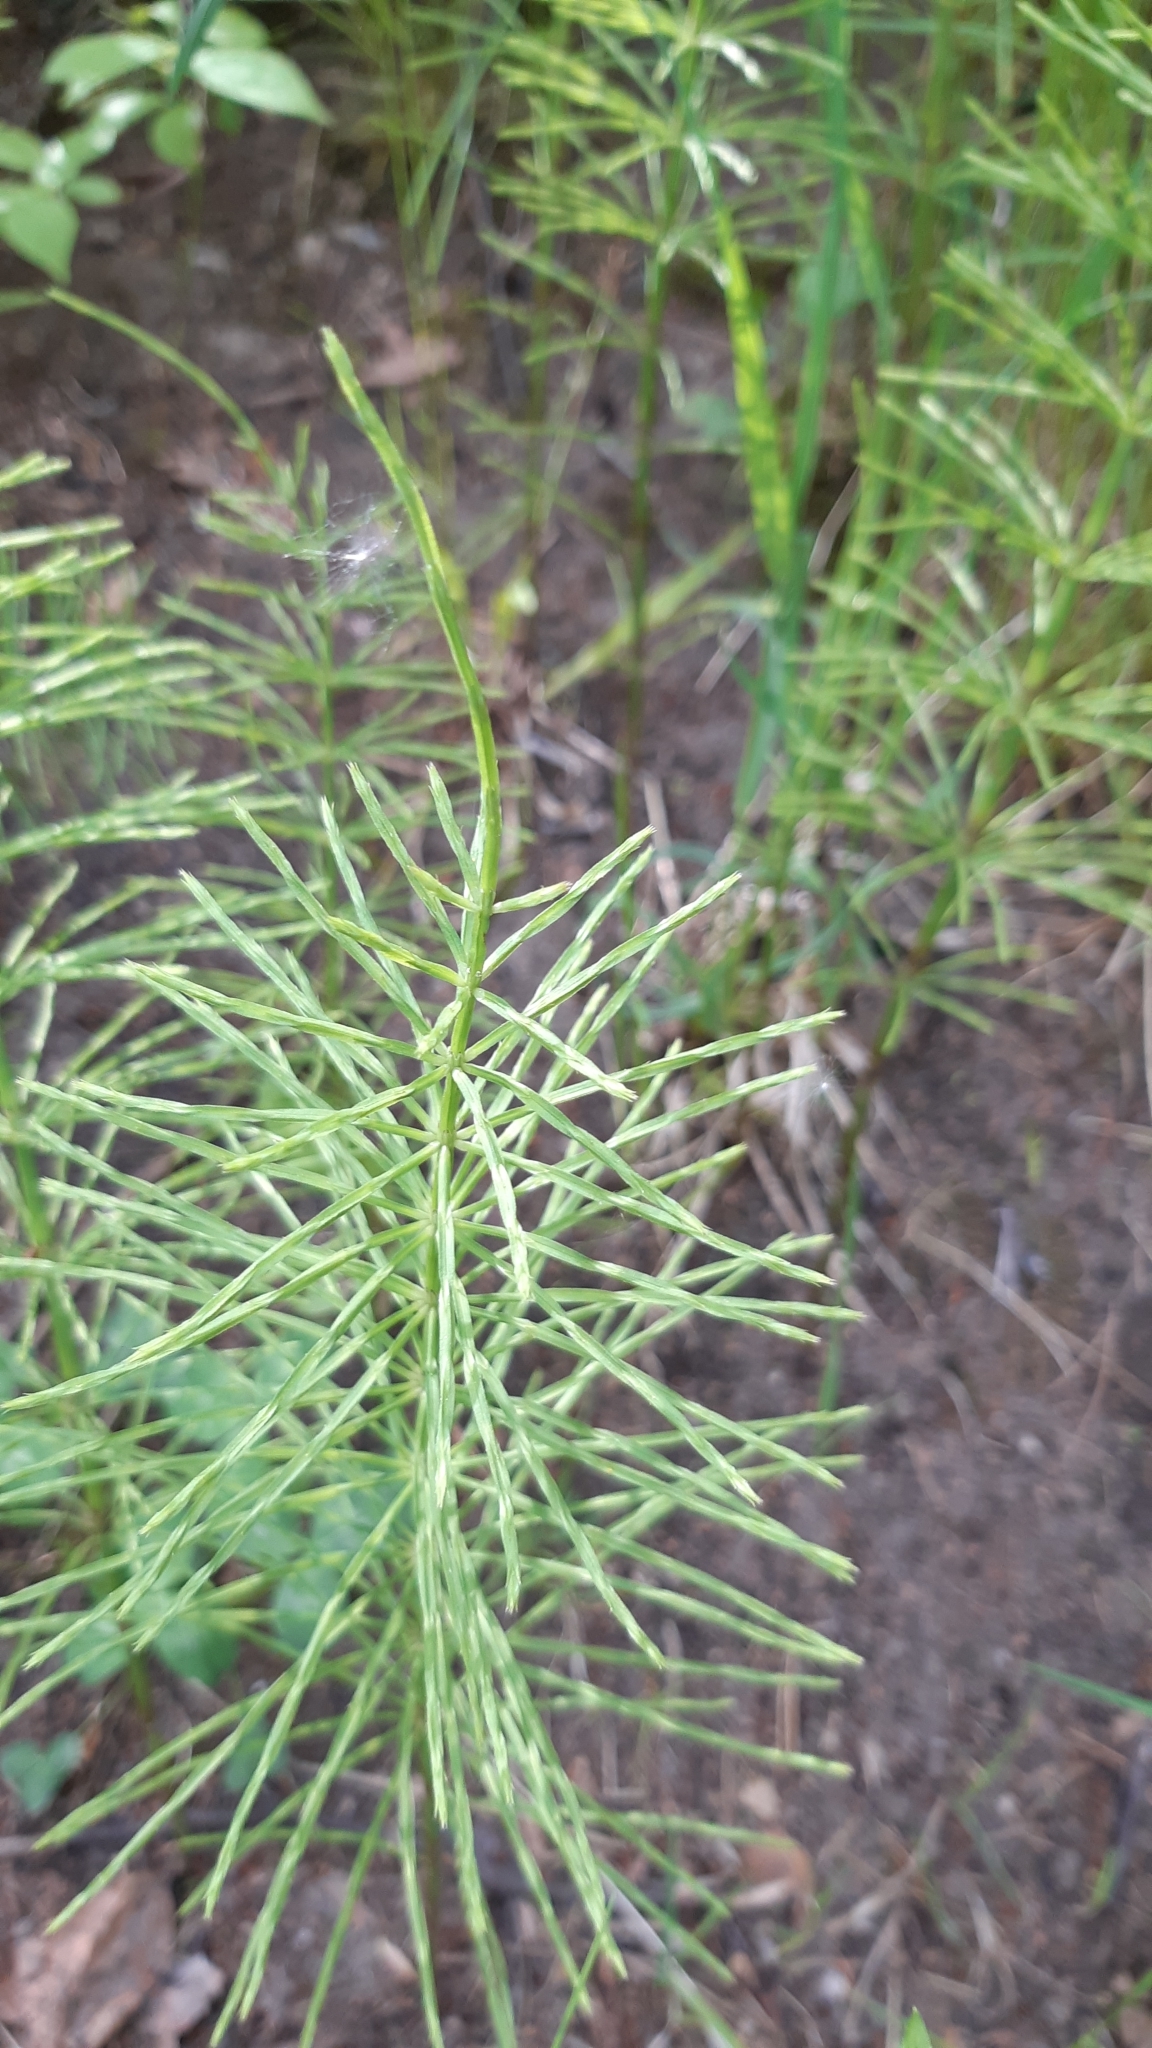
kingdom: Plantae
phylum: Tracheophyta
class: Polypodiopsida
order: Equisetales
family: Equisetaceae
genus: Equisetum
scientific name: Equisetum arvense
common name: Field horsetail
